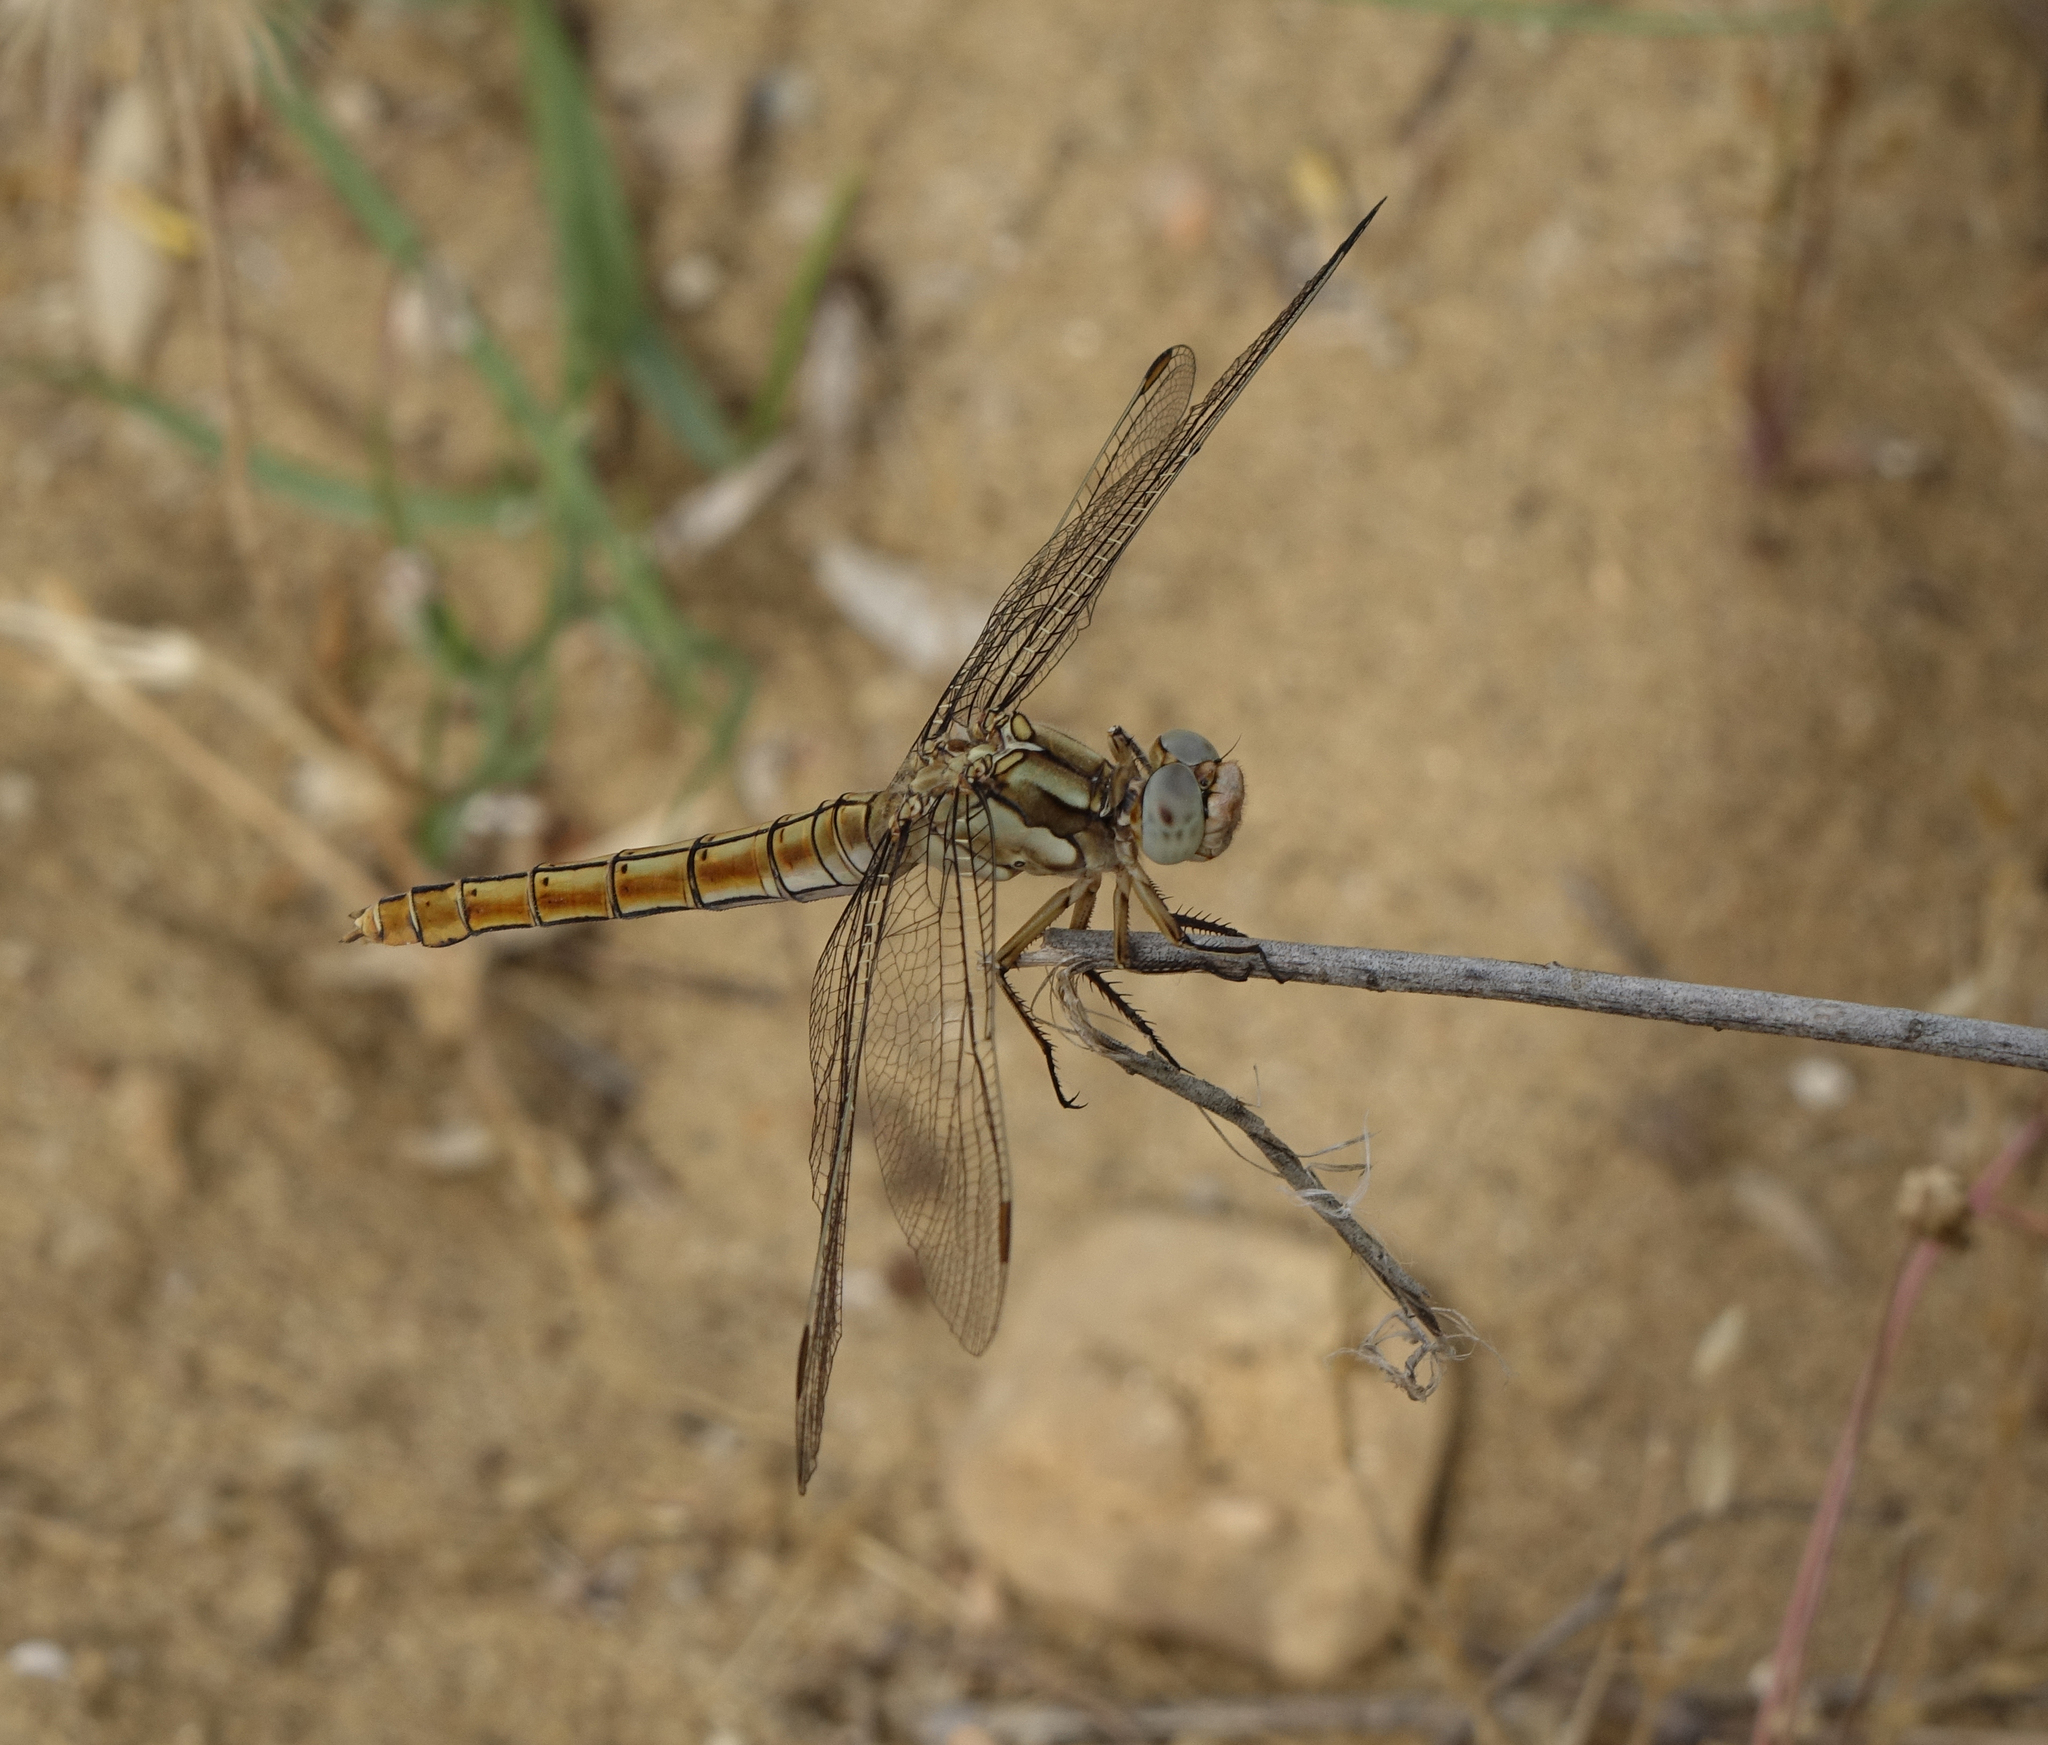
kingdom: Animalia
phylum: Arthropoda
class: Insecta
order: Odonata
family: Libellulidae
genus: Orthetrum
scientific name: Orthetrum brunneum
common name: Southern skimmer
